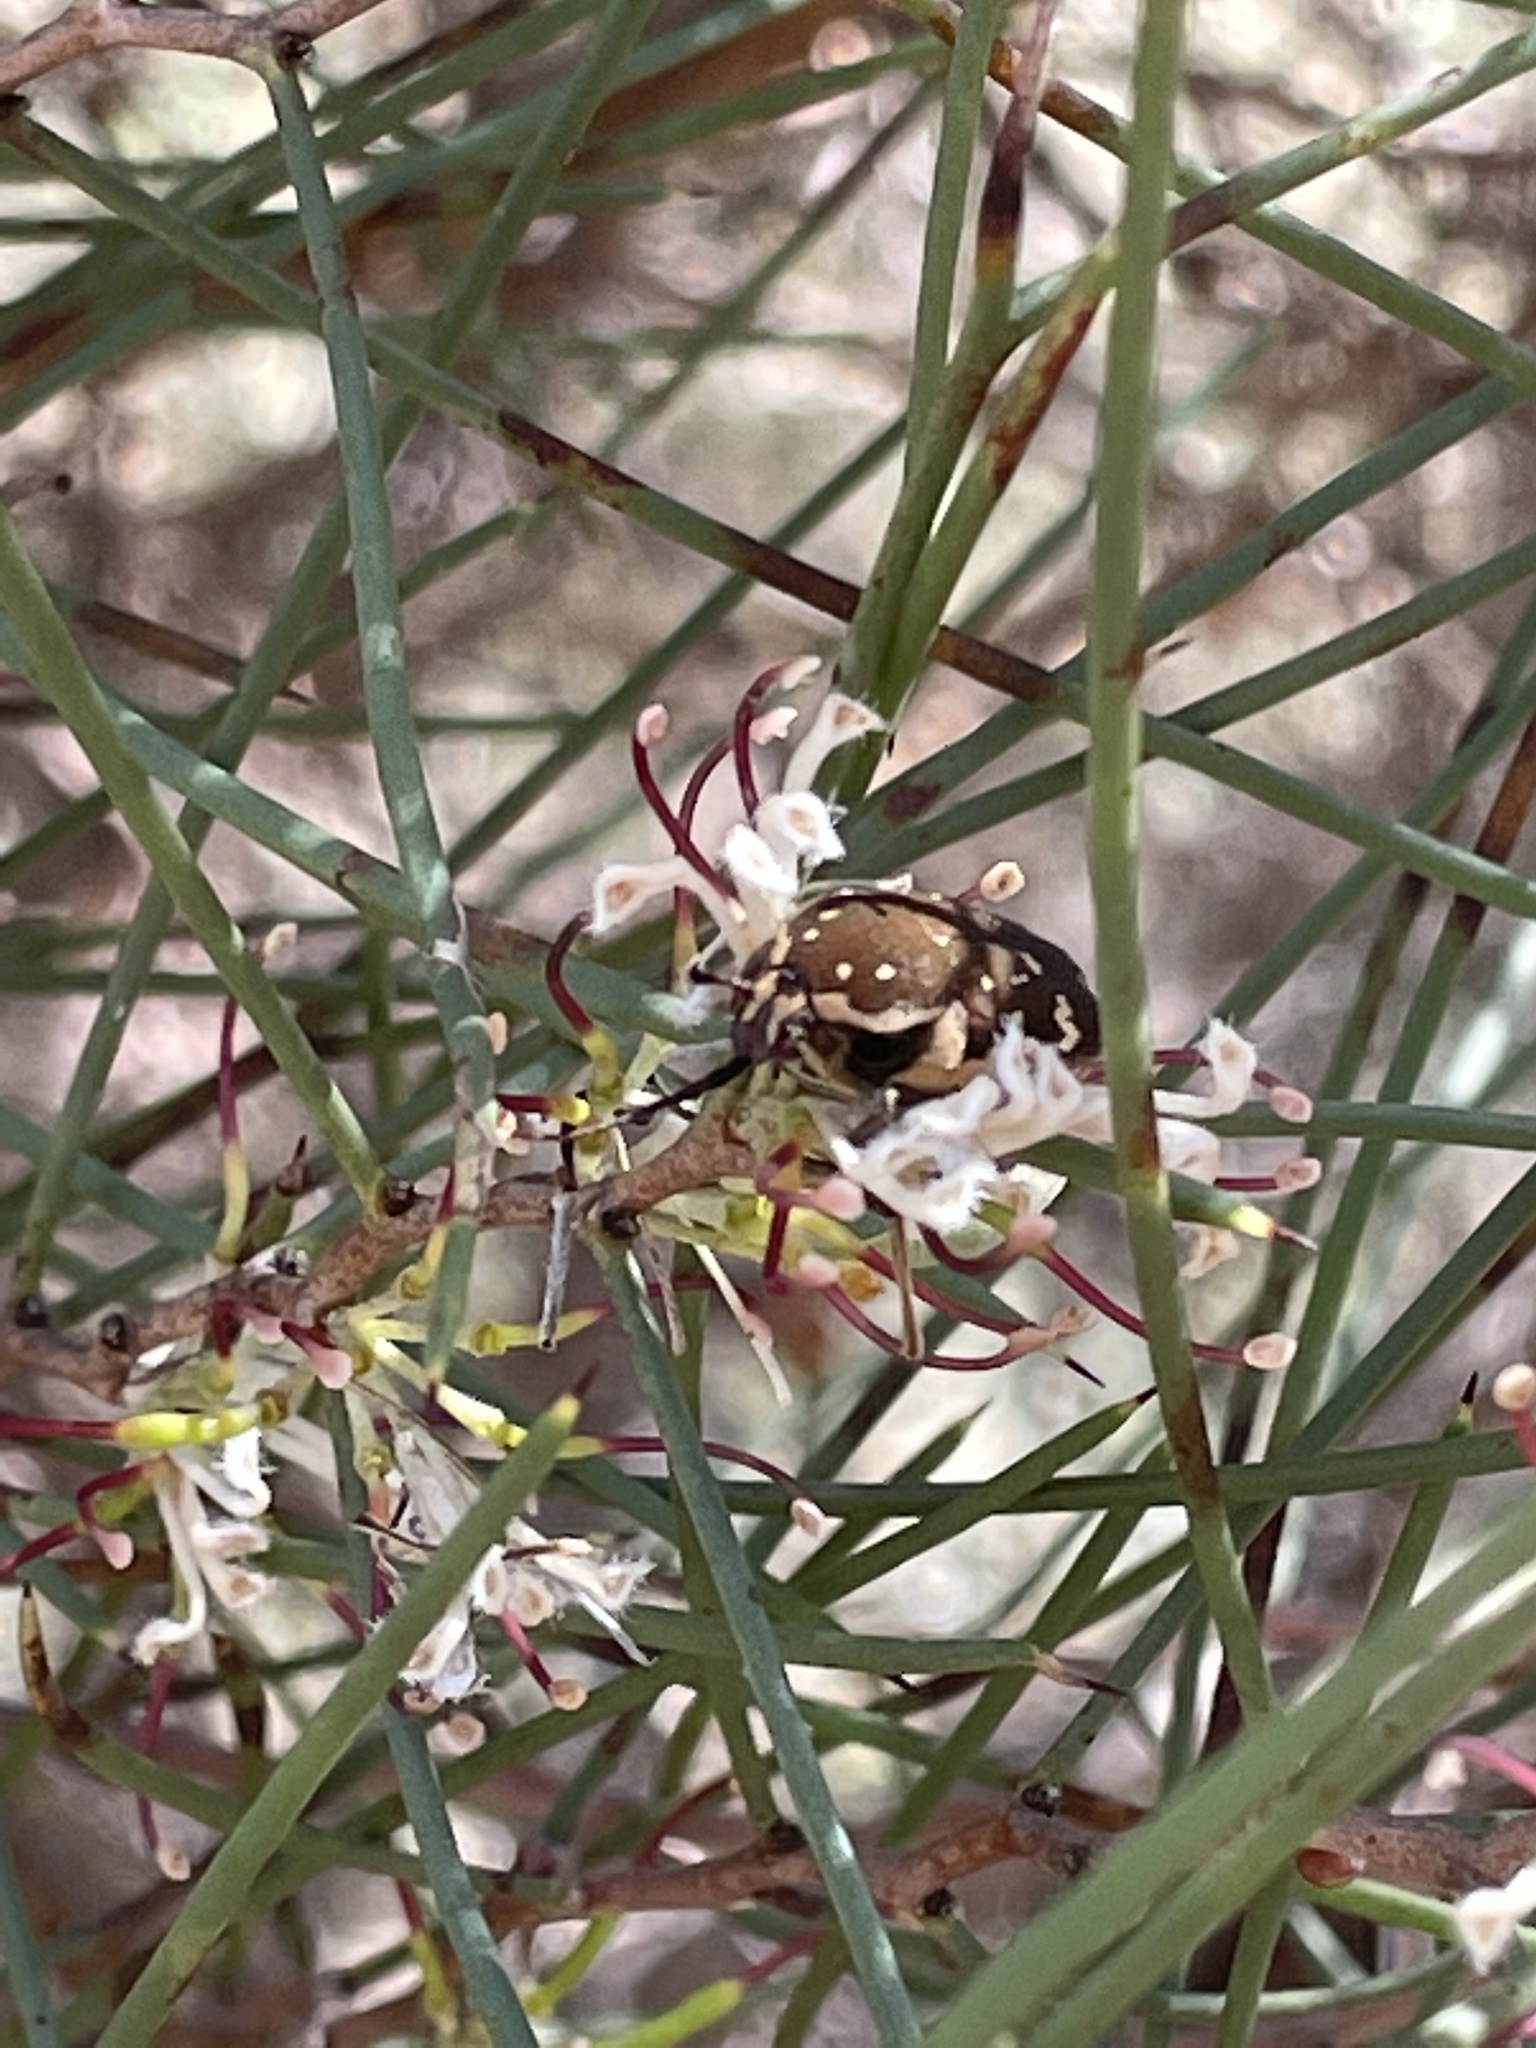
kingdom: Animalia
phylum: Arthropoda
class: Insecta
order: Coleoptera
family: Scarabaeidae
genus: Glycyphana
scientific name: Glycyphana stolata
